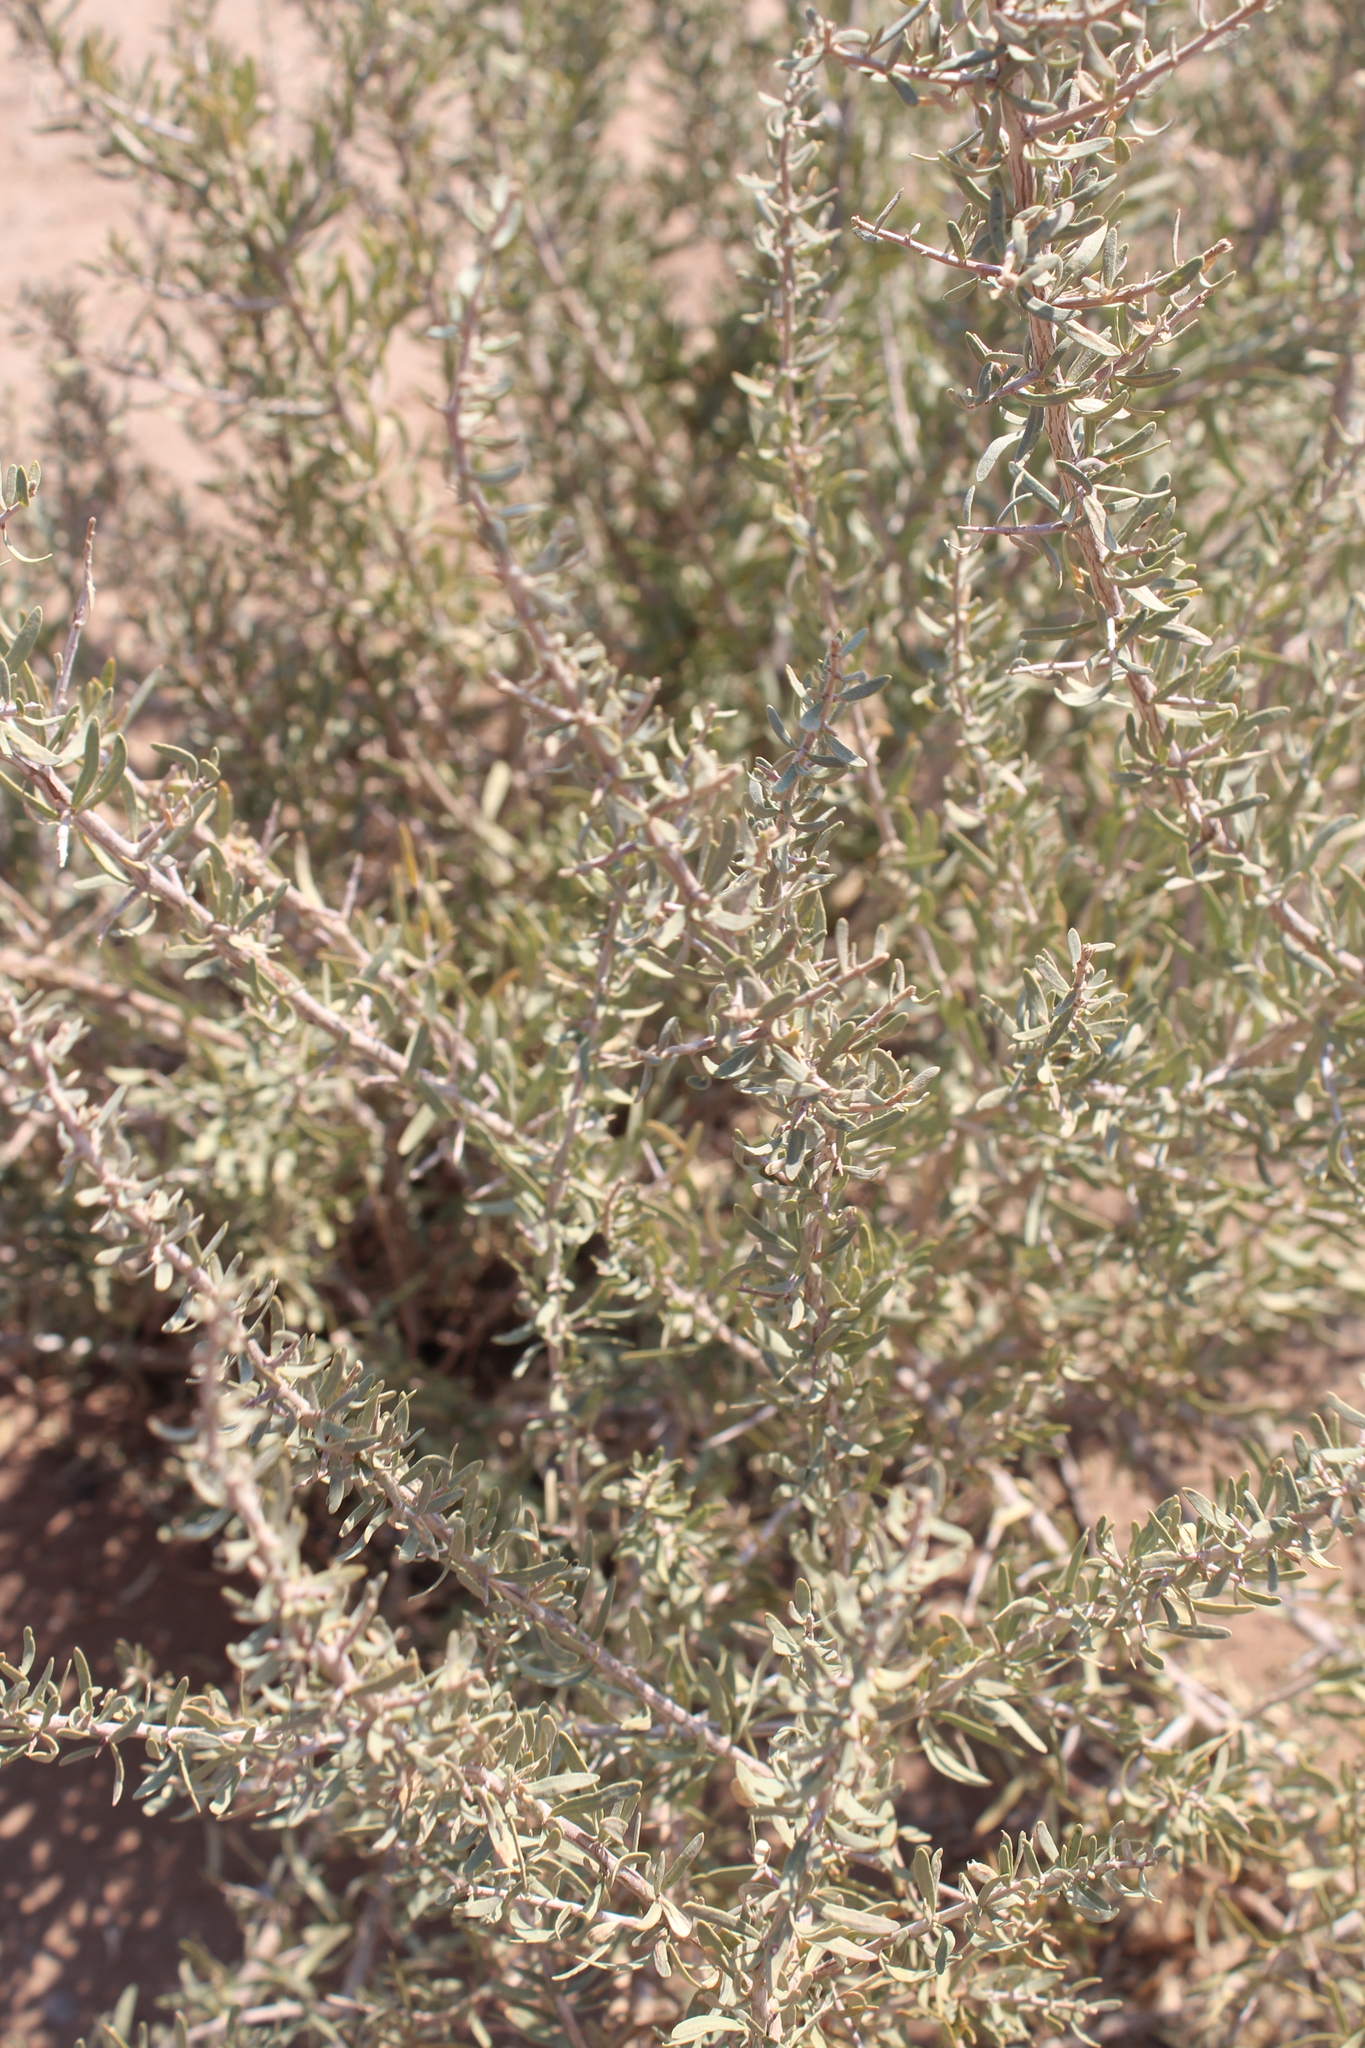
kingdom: Plantae
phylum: Tracheophyta
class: Magnoliopsida
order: Caryophyllales
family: Nyctaginaceae
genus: Phaeoptilum
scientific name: Phaeoptilum spinosum
